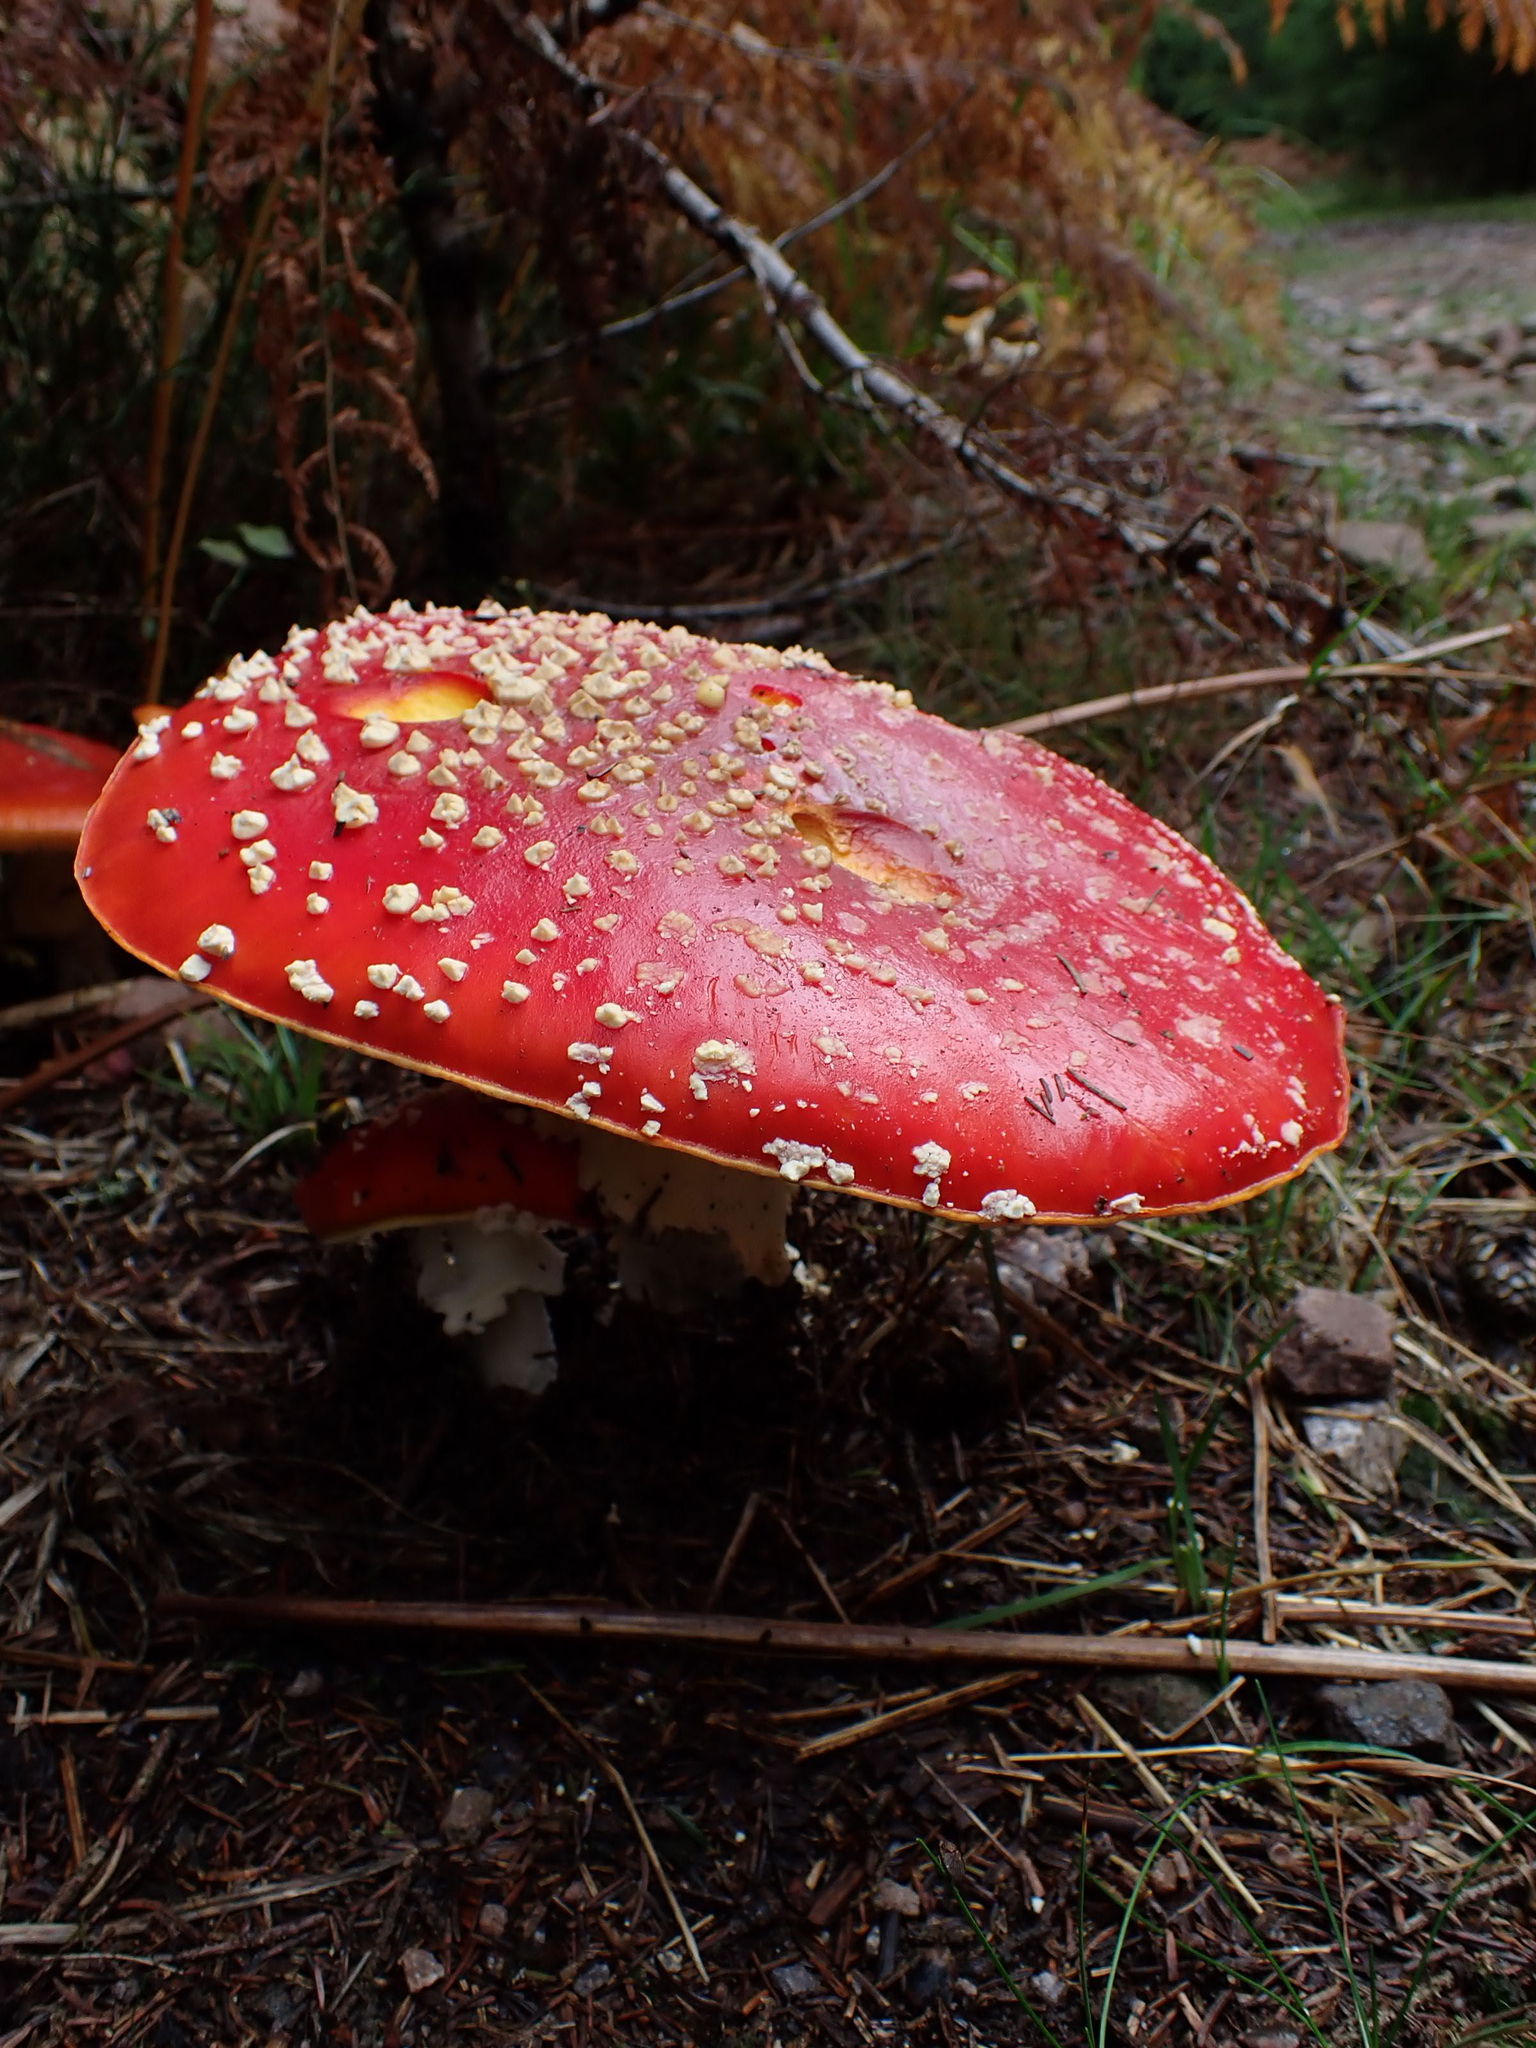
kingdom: Fungi
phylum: Basidiomycota
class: Agaricomycetes
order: Agaricales
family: Amanitaceae
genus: Amanita
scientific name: Amanita muscaria
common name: Fly agaric
